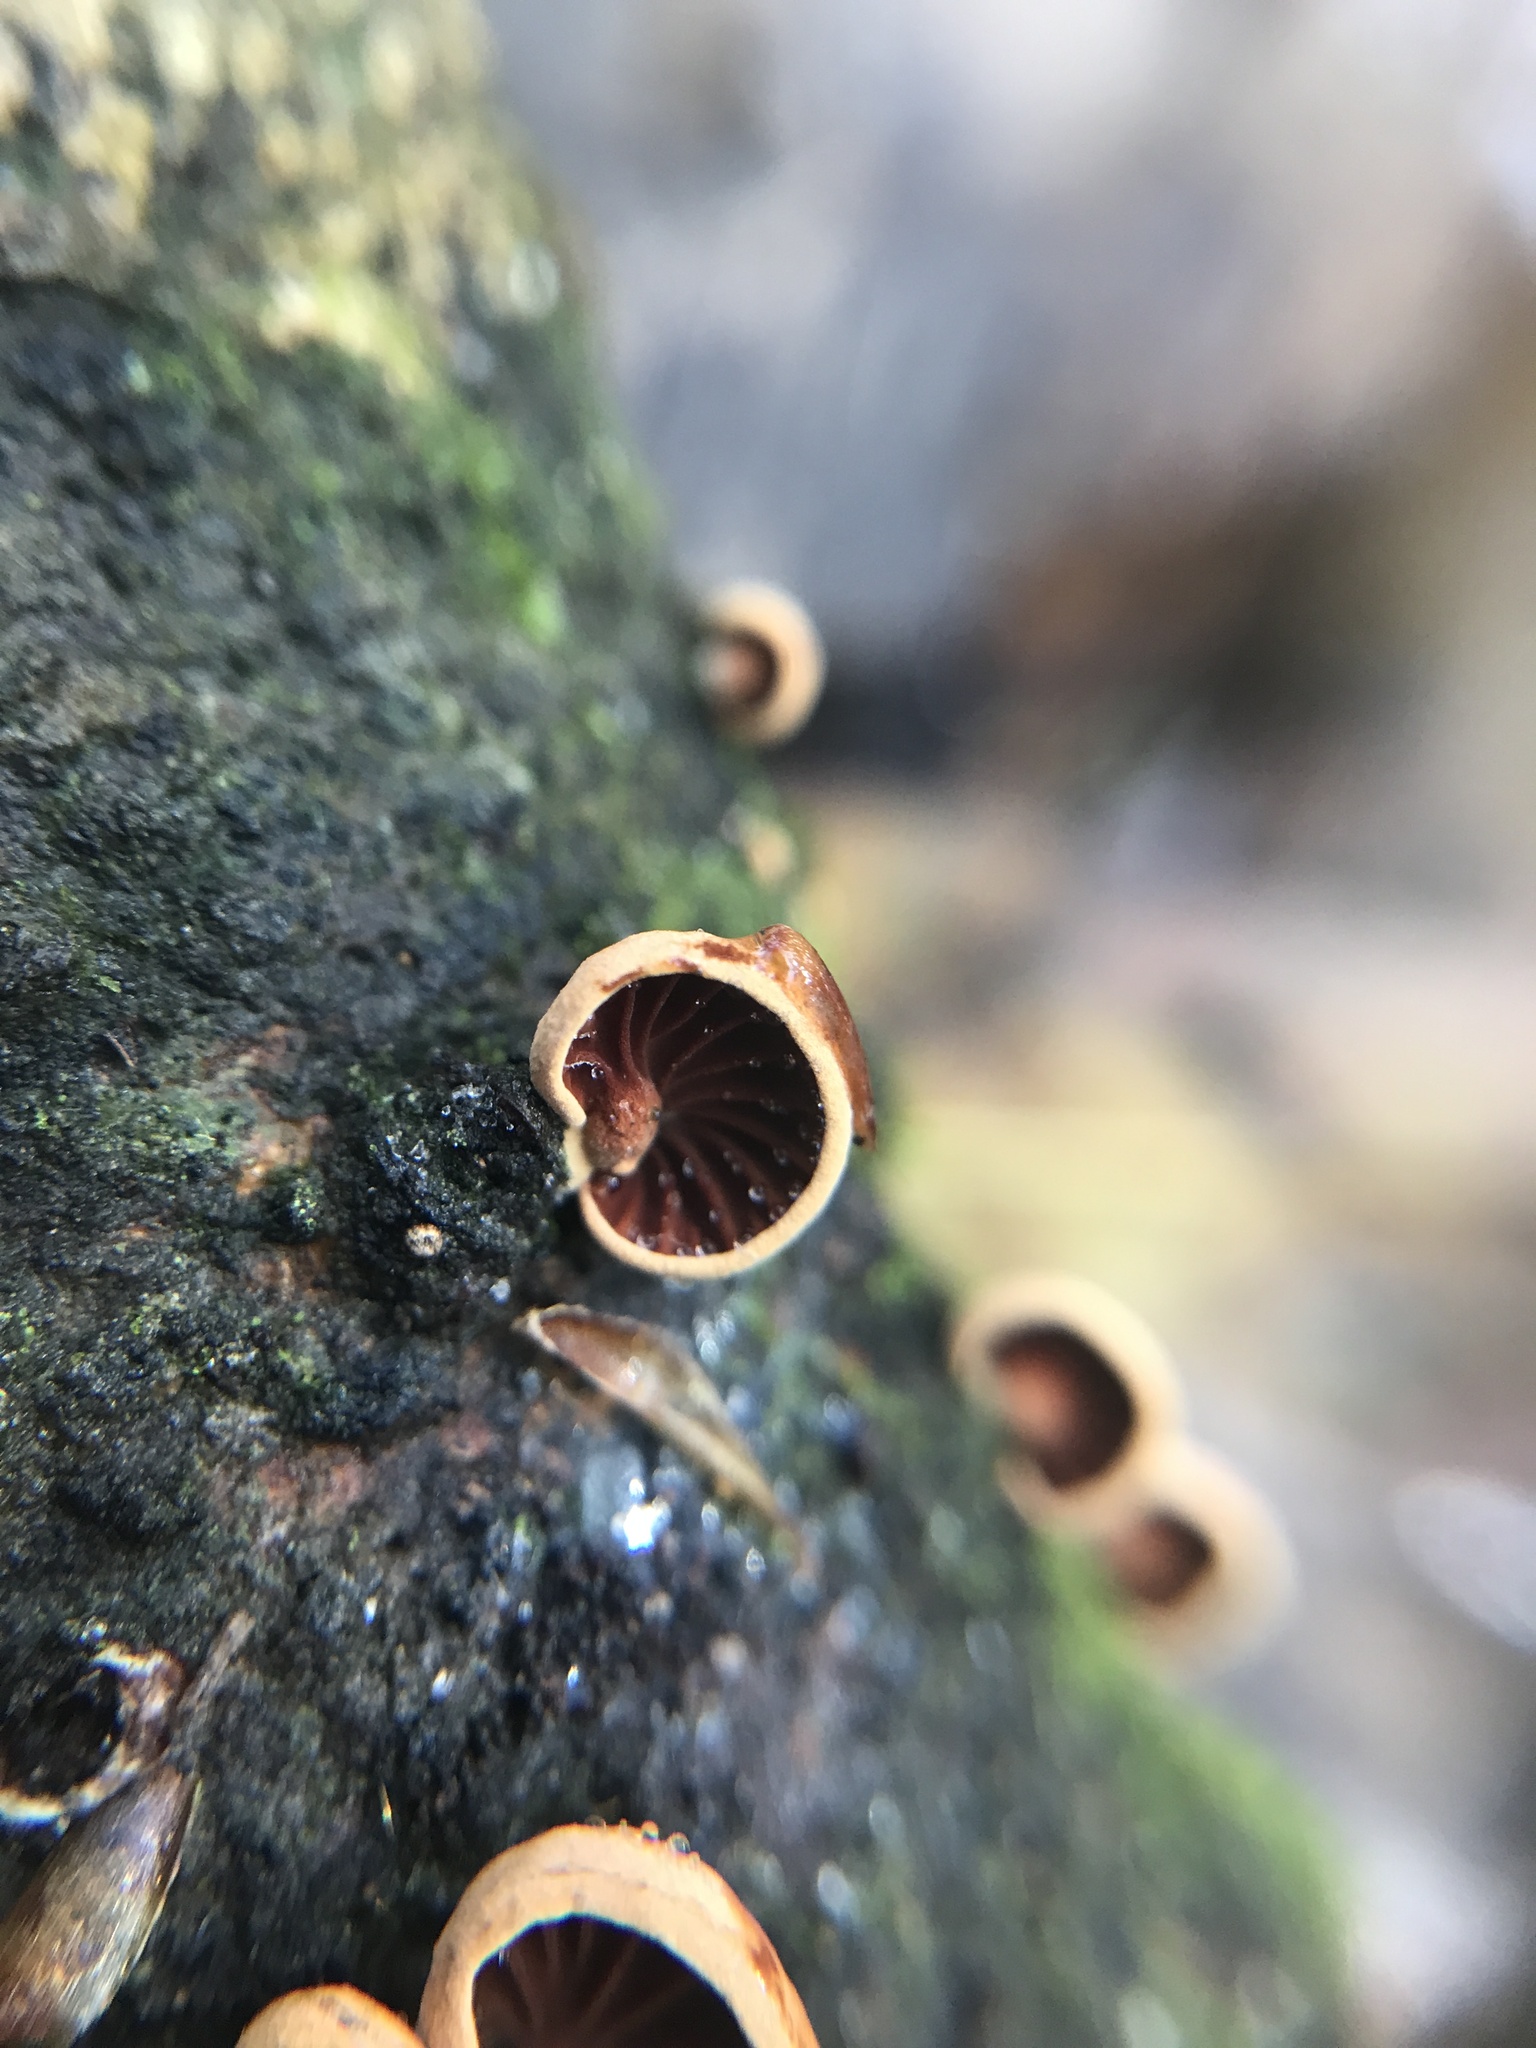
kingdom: Fungi
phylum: Basidiomycota
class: Agaricomycetes
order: Agaricales
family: Omphalotaceae
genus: Anthracophyllum
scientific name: Anthracophyllum lateritium
